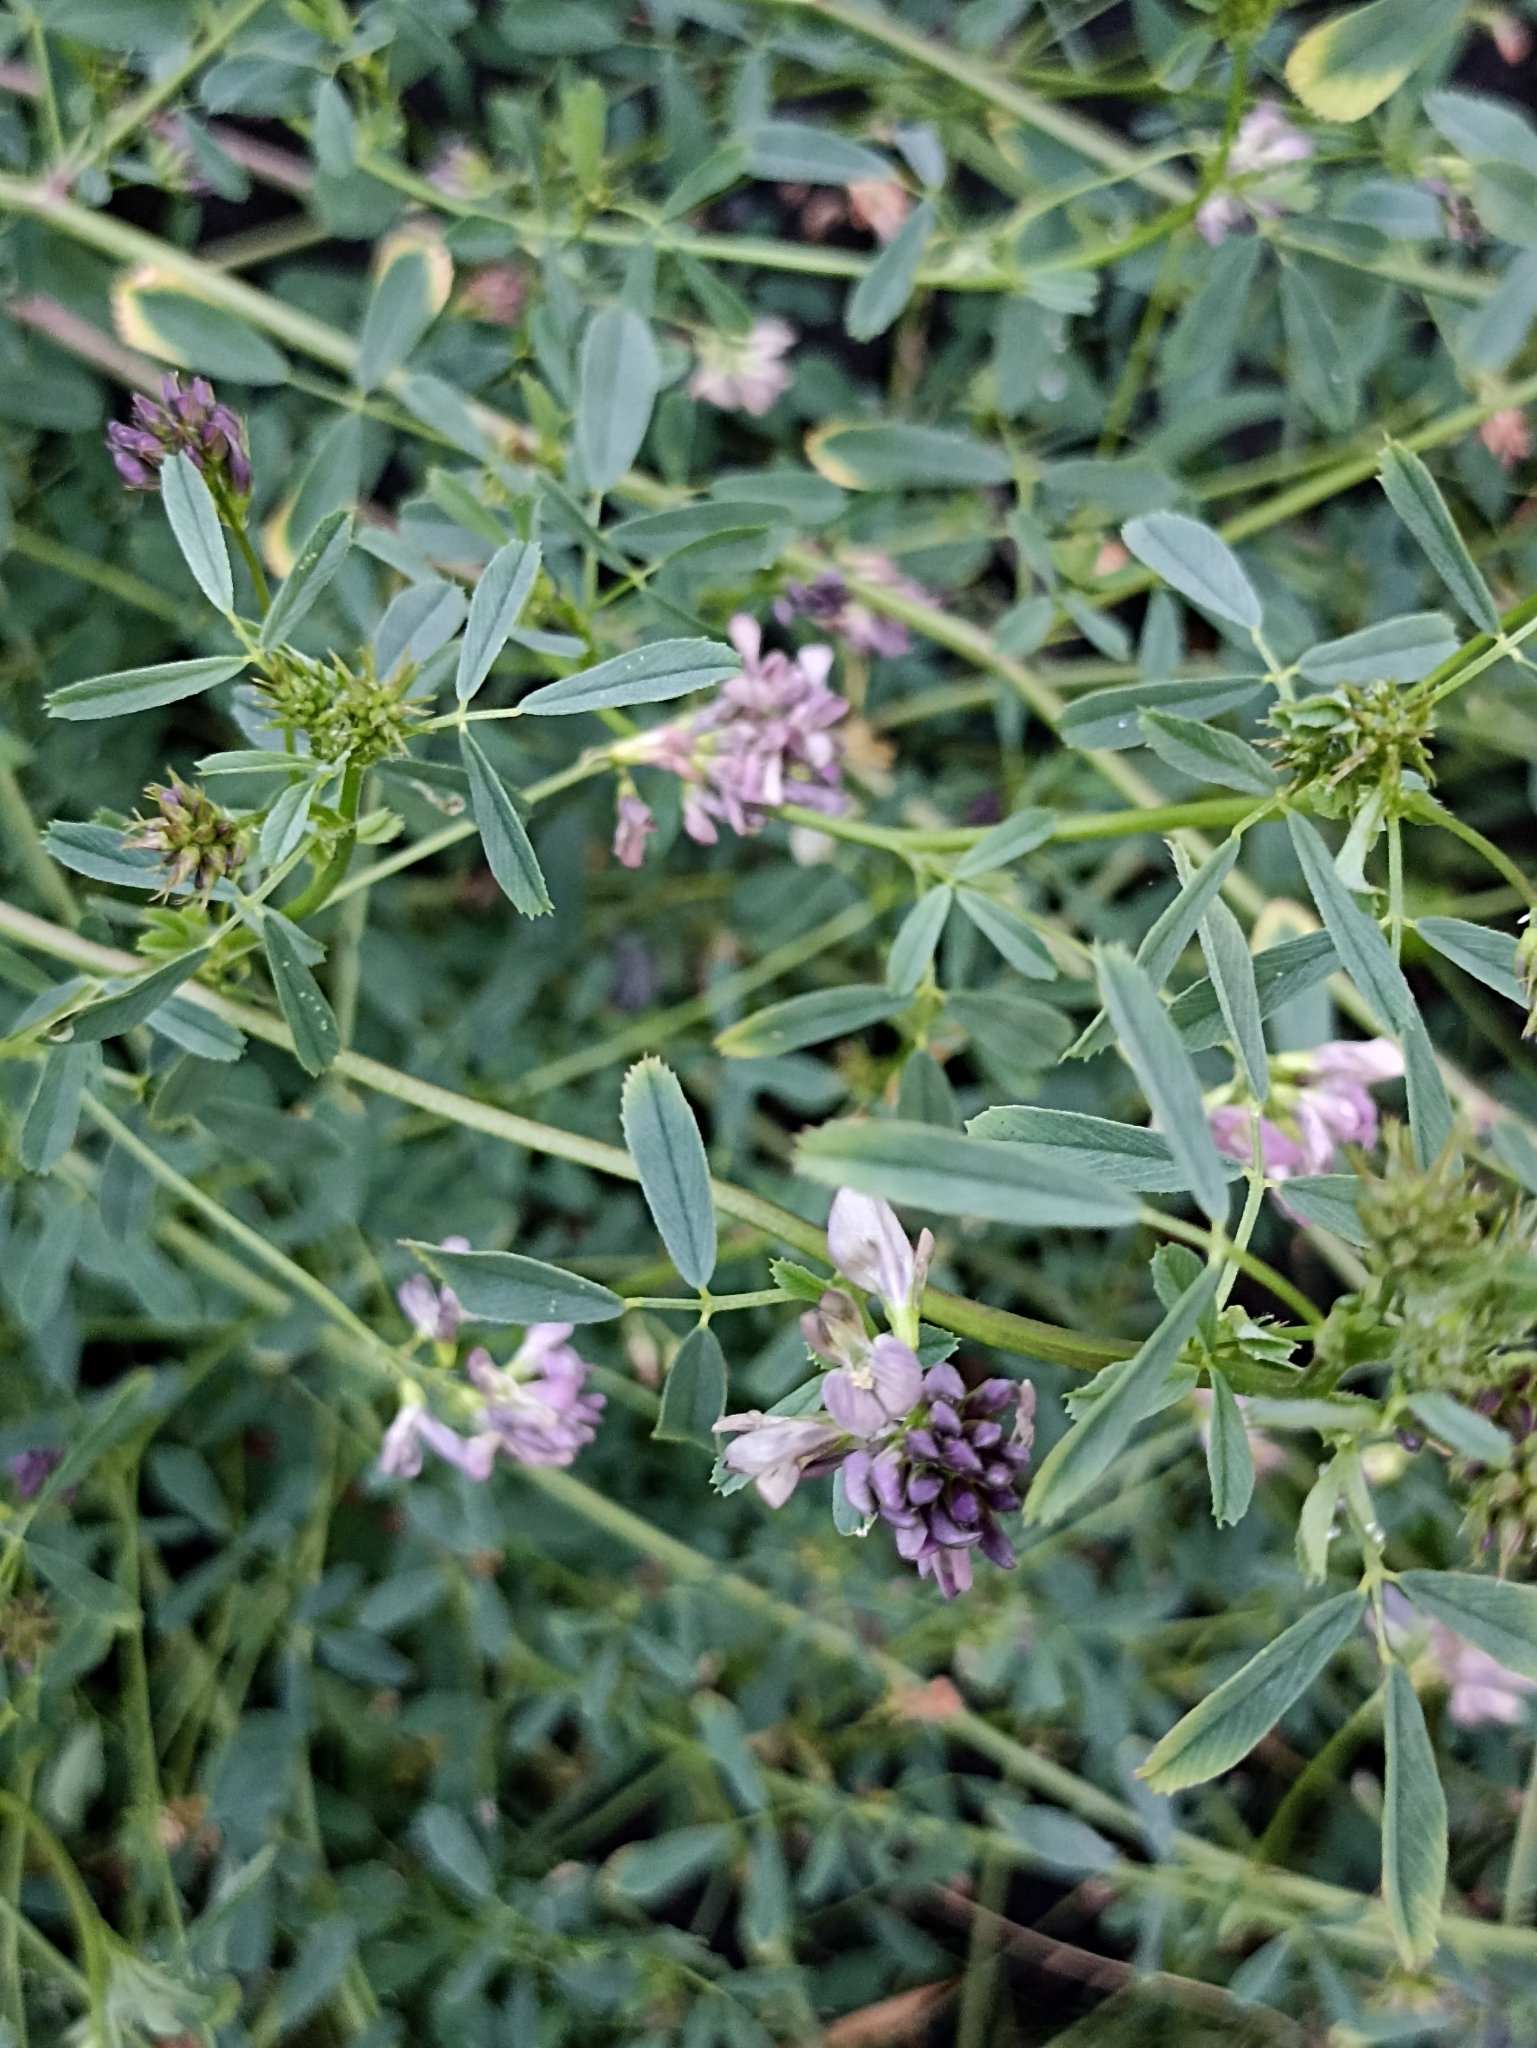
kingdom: Plantae
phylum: Tracheophyta
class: Magnoliopsida
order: Fabales
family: Fabaceae
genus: Medicago
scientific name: Medicago sativa
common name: Alfalfa
